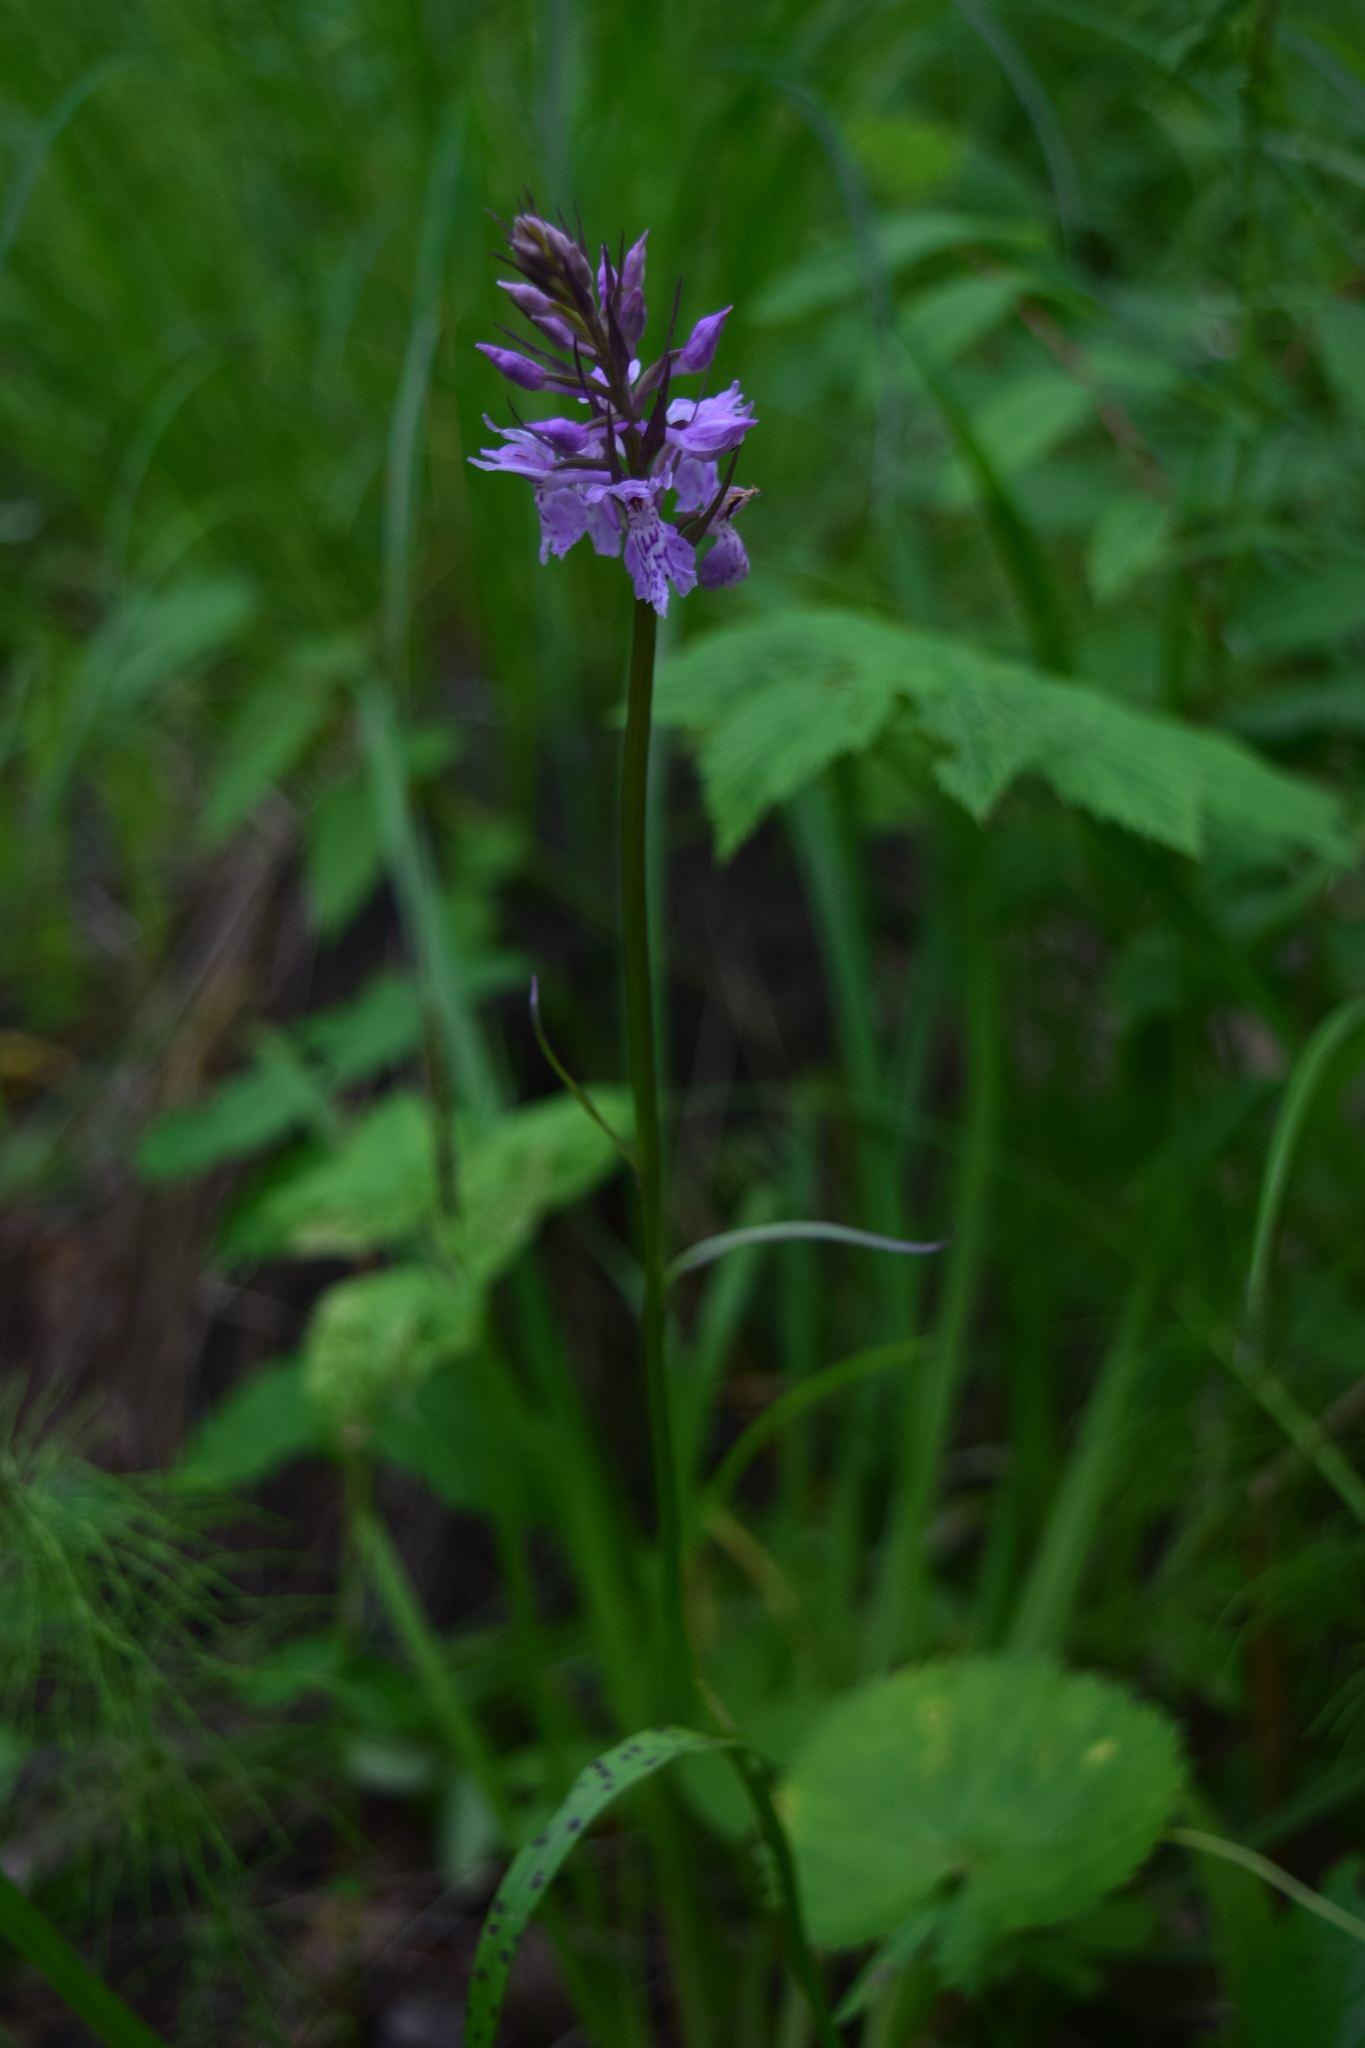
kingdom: Plantae
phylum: Tracheophyta
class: Liliopsida
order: Asparagales
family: Orchidaceae
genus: Dactylorhiza
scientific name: Dactylorhiza maculata
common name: Heath spotted-orchid
